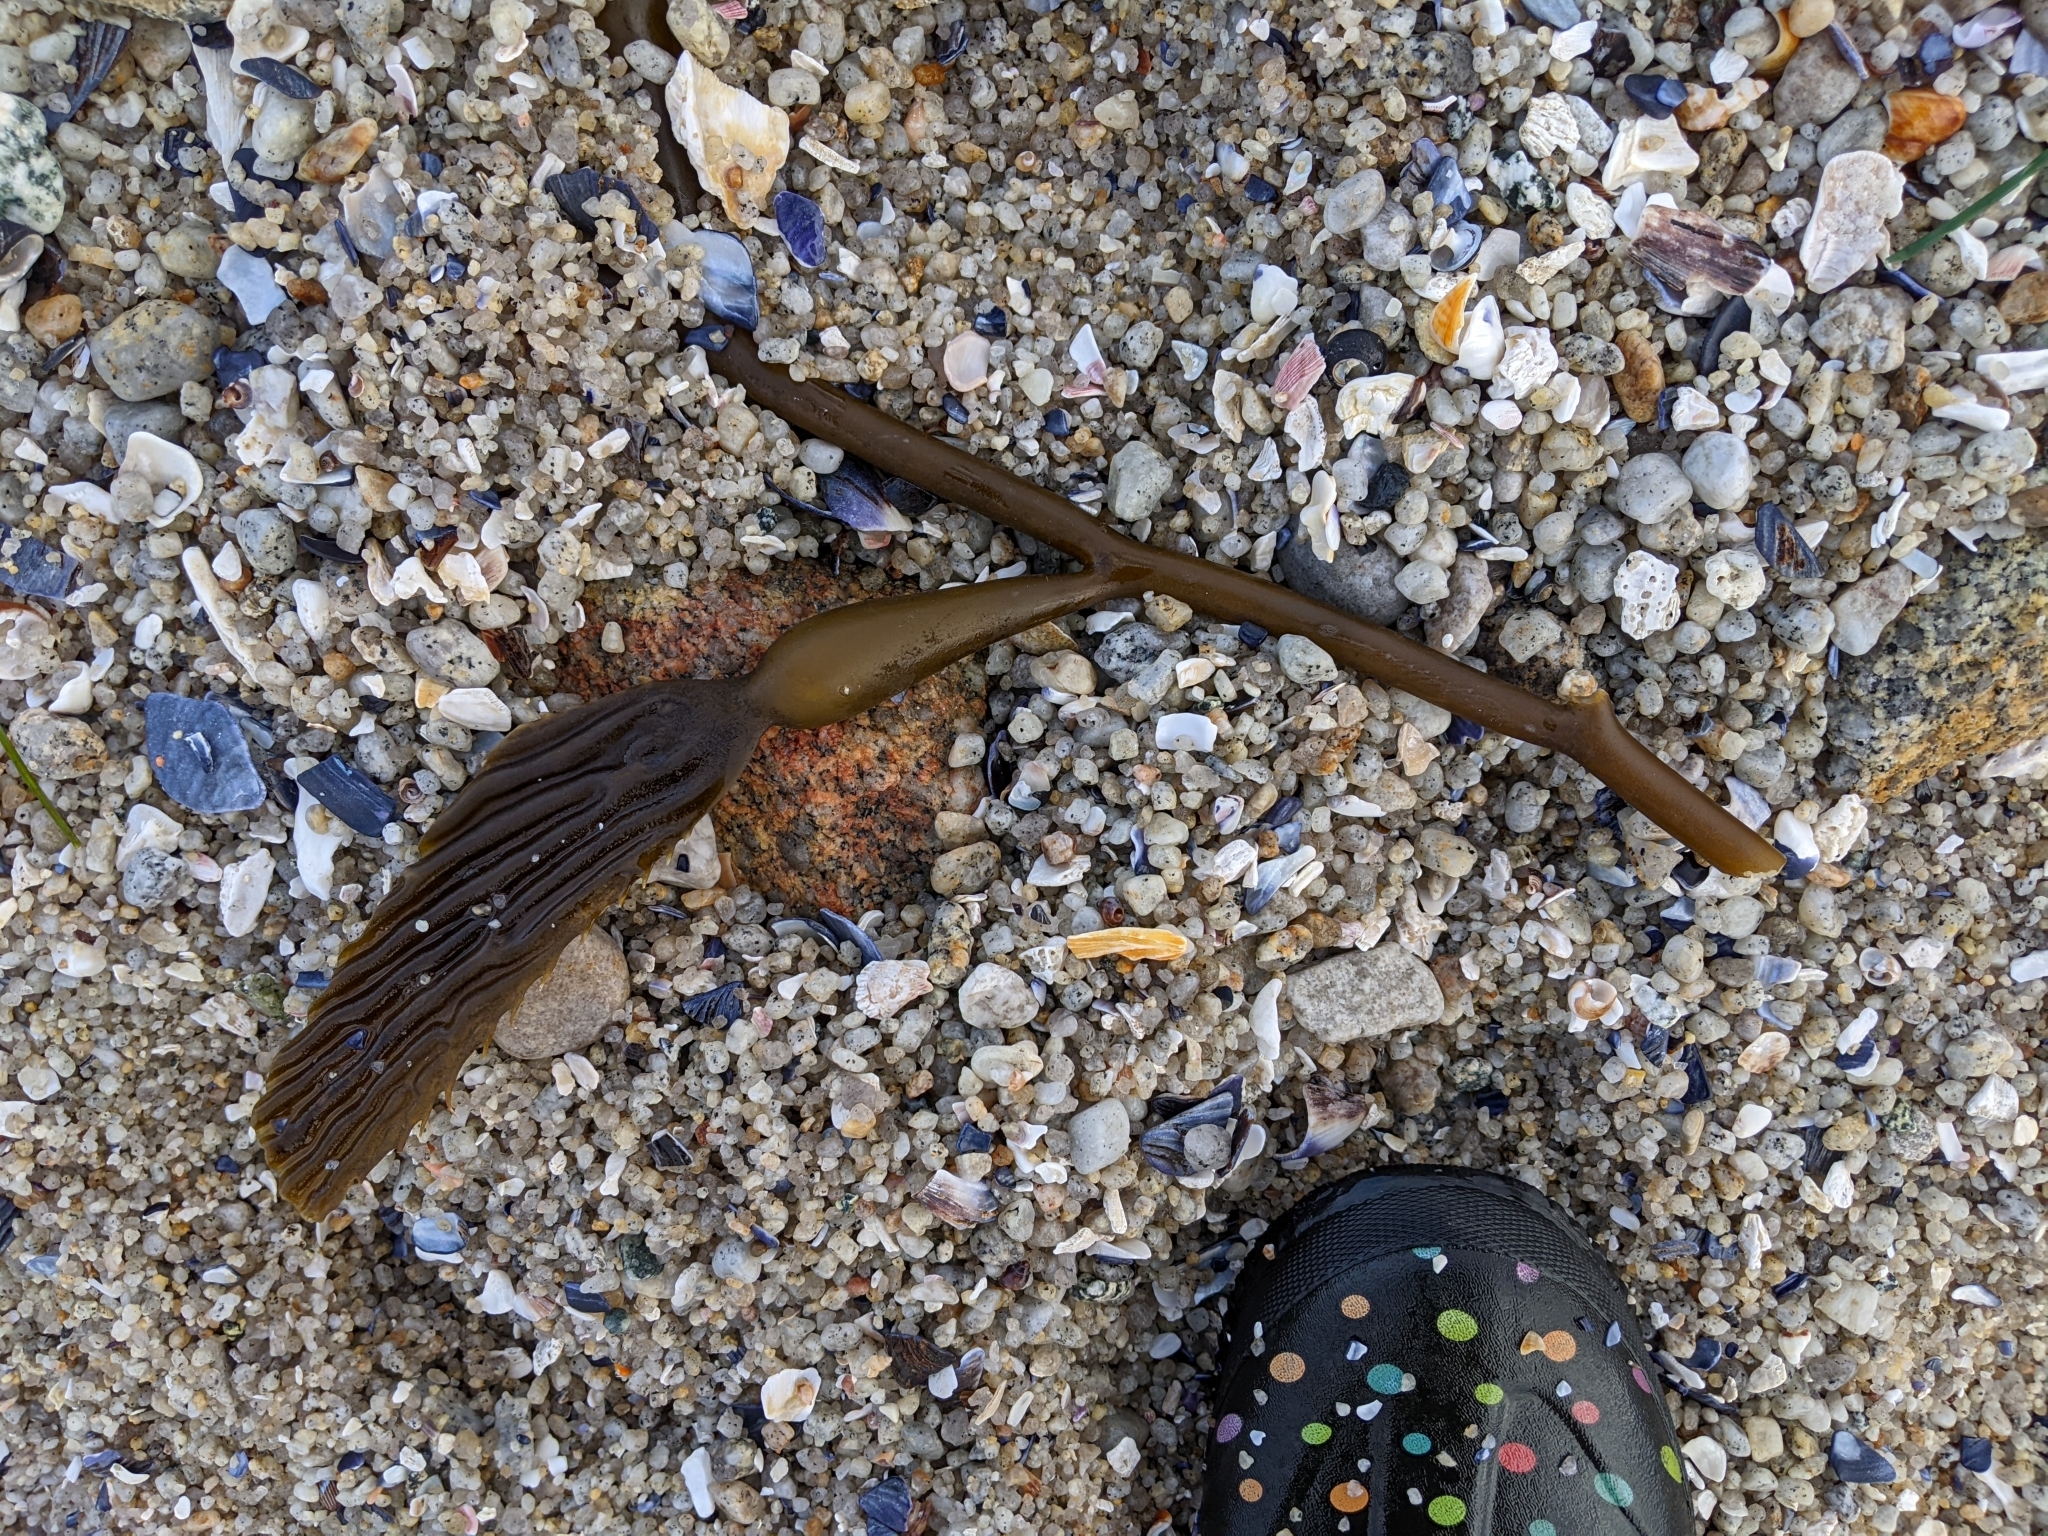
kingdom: Chromista
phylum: Ochrophyta
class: Phaeophyceae
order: Laminariales
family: Laminariaceae
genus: Macrocystis
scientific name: Macrocystis pyrifera
